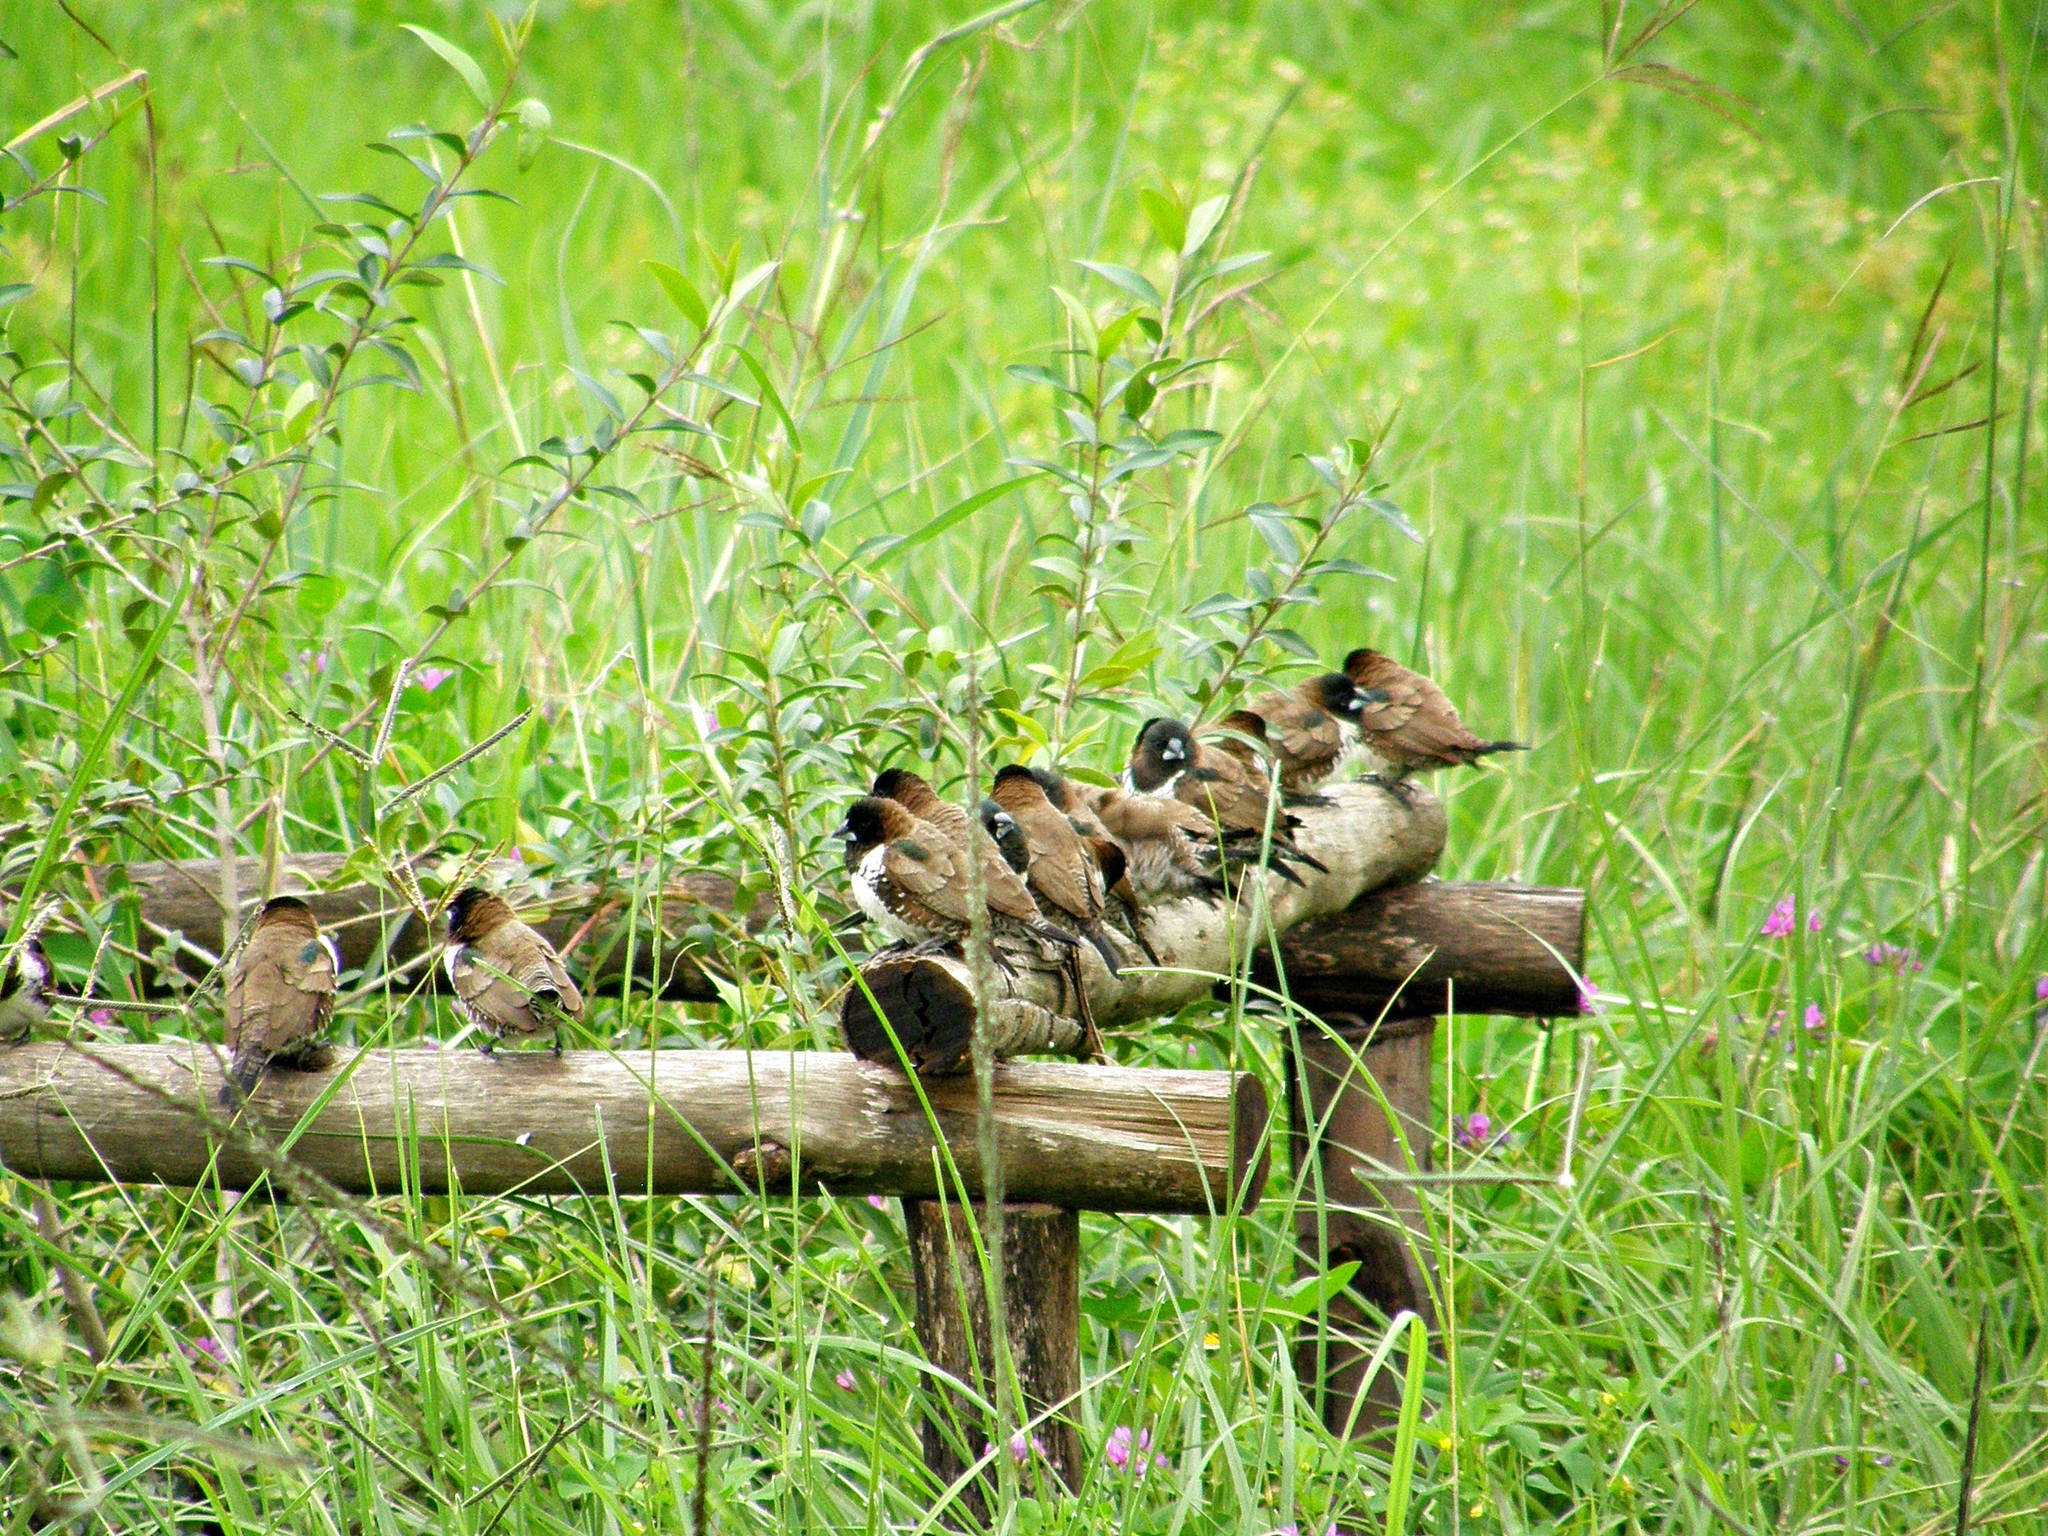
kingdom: Animalia
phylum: Chordata
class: Aves
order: Passeriformes
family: Estrildidae
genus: Lonchura
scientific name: Lonchura cucullata
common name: Bronze mannikin
